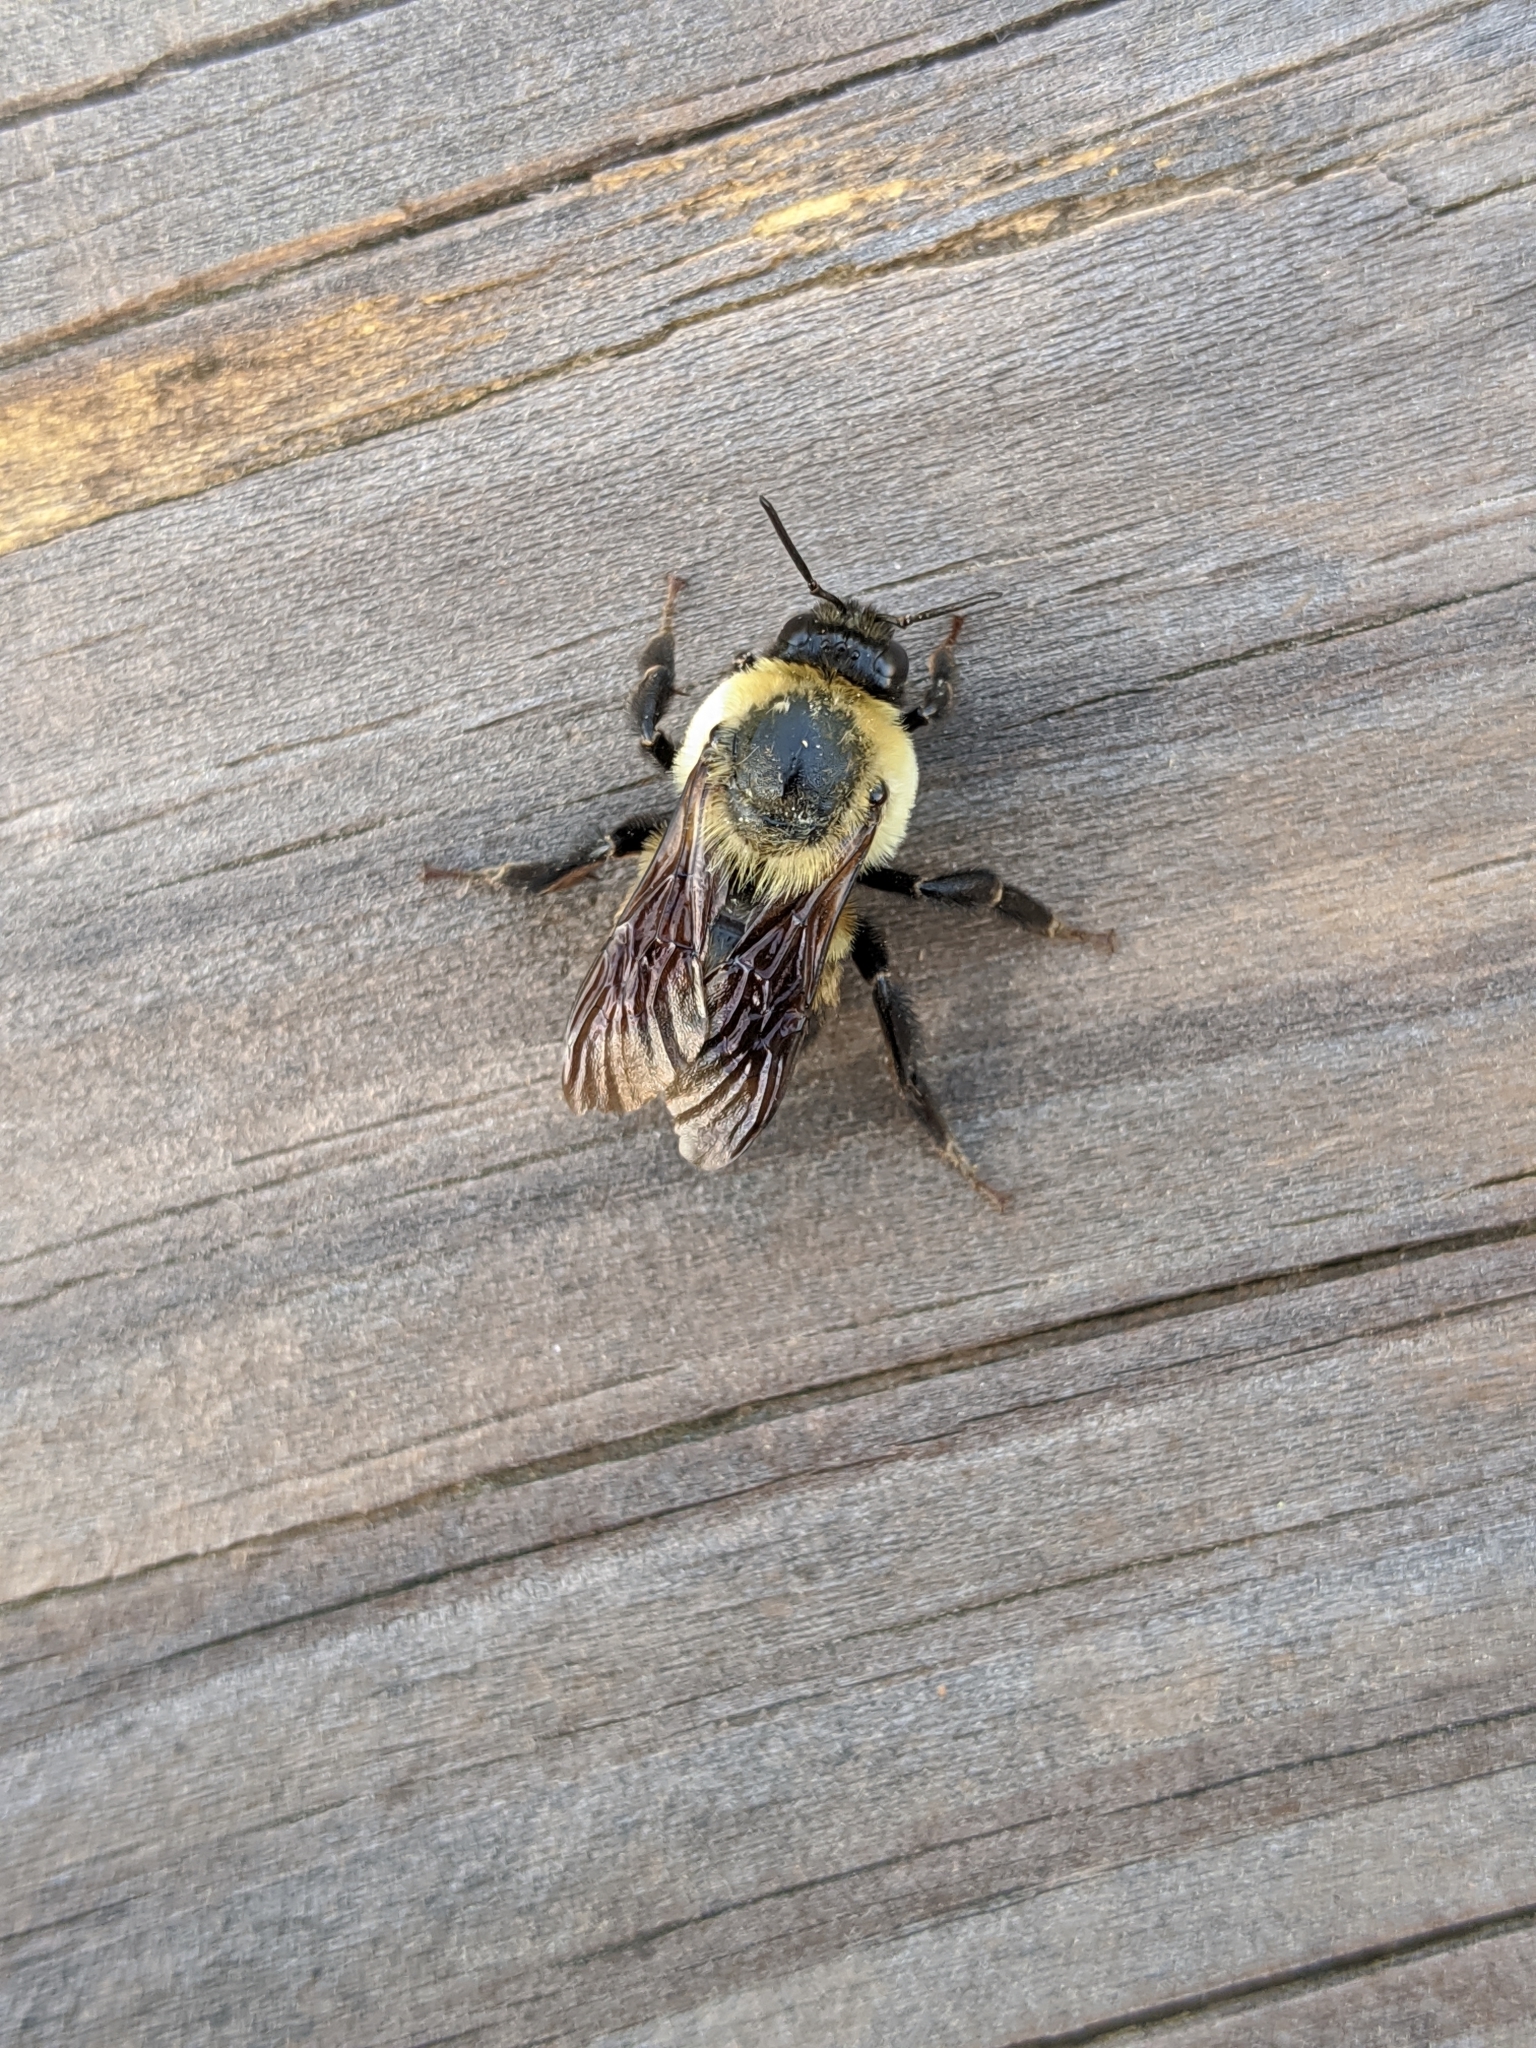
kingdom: Animalia
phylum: Arthropoda
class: Insecta
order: Hymenoptera
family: Apidae
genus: Bombus
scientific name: Bombus griseocollis
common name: Brown-belted bumble bee
